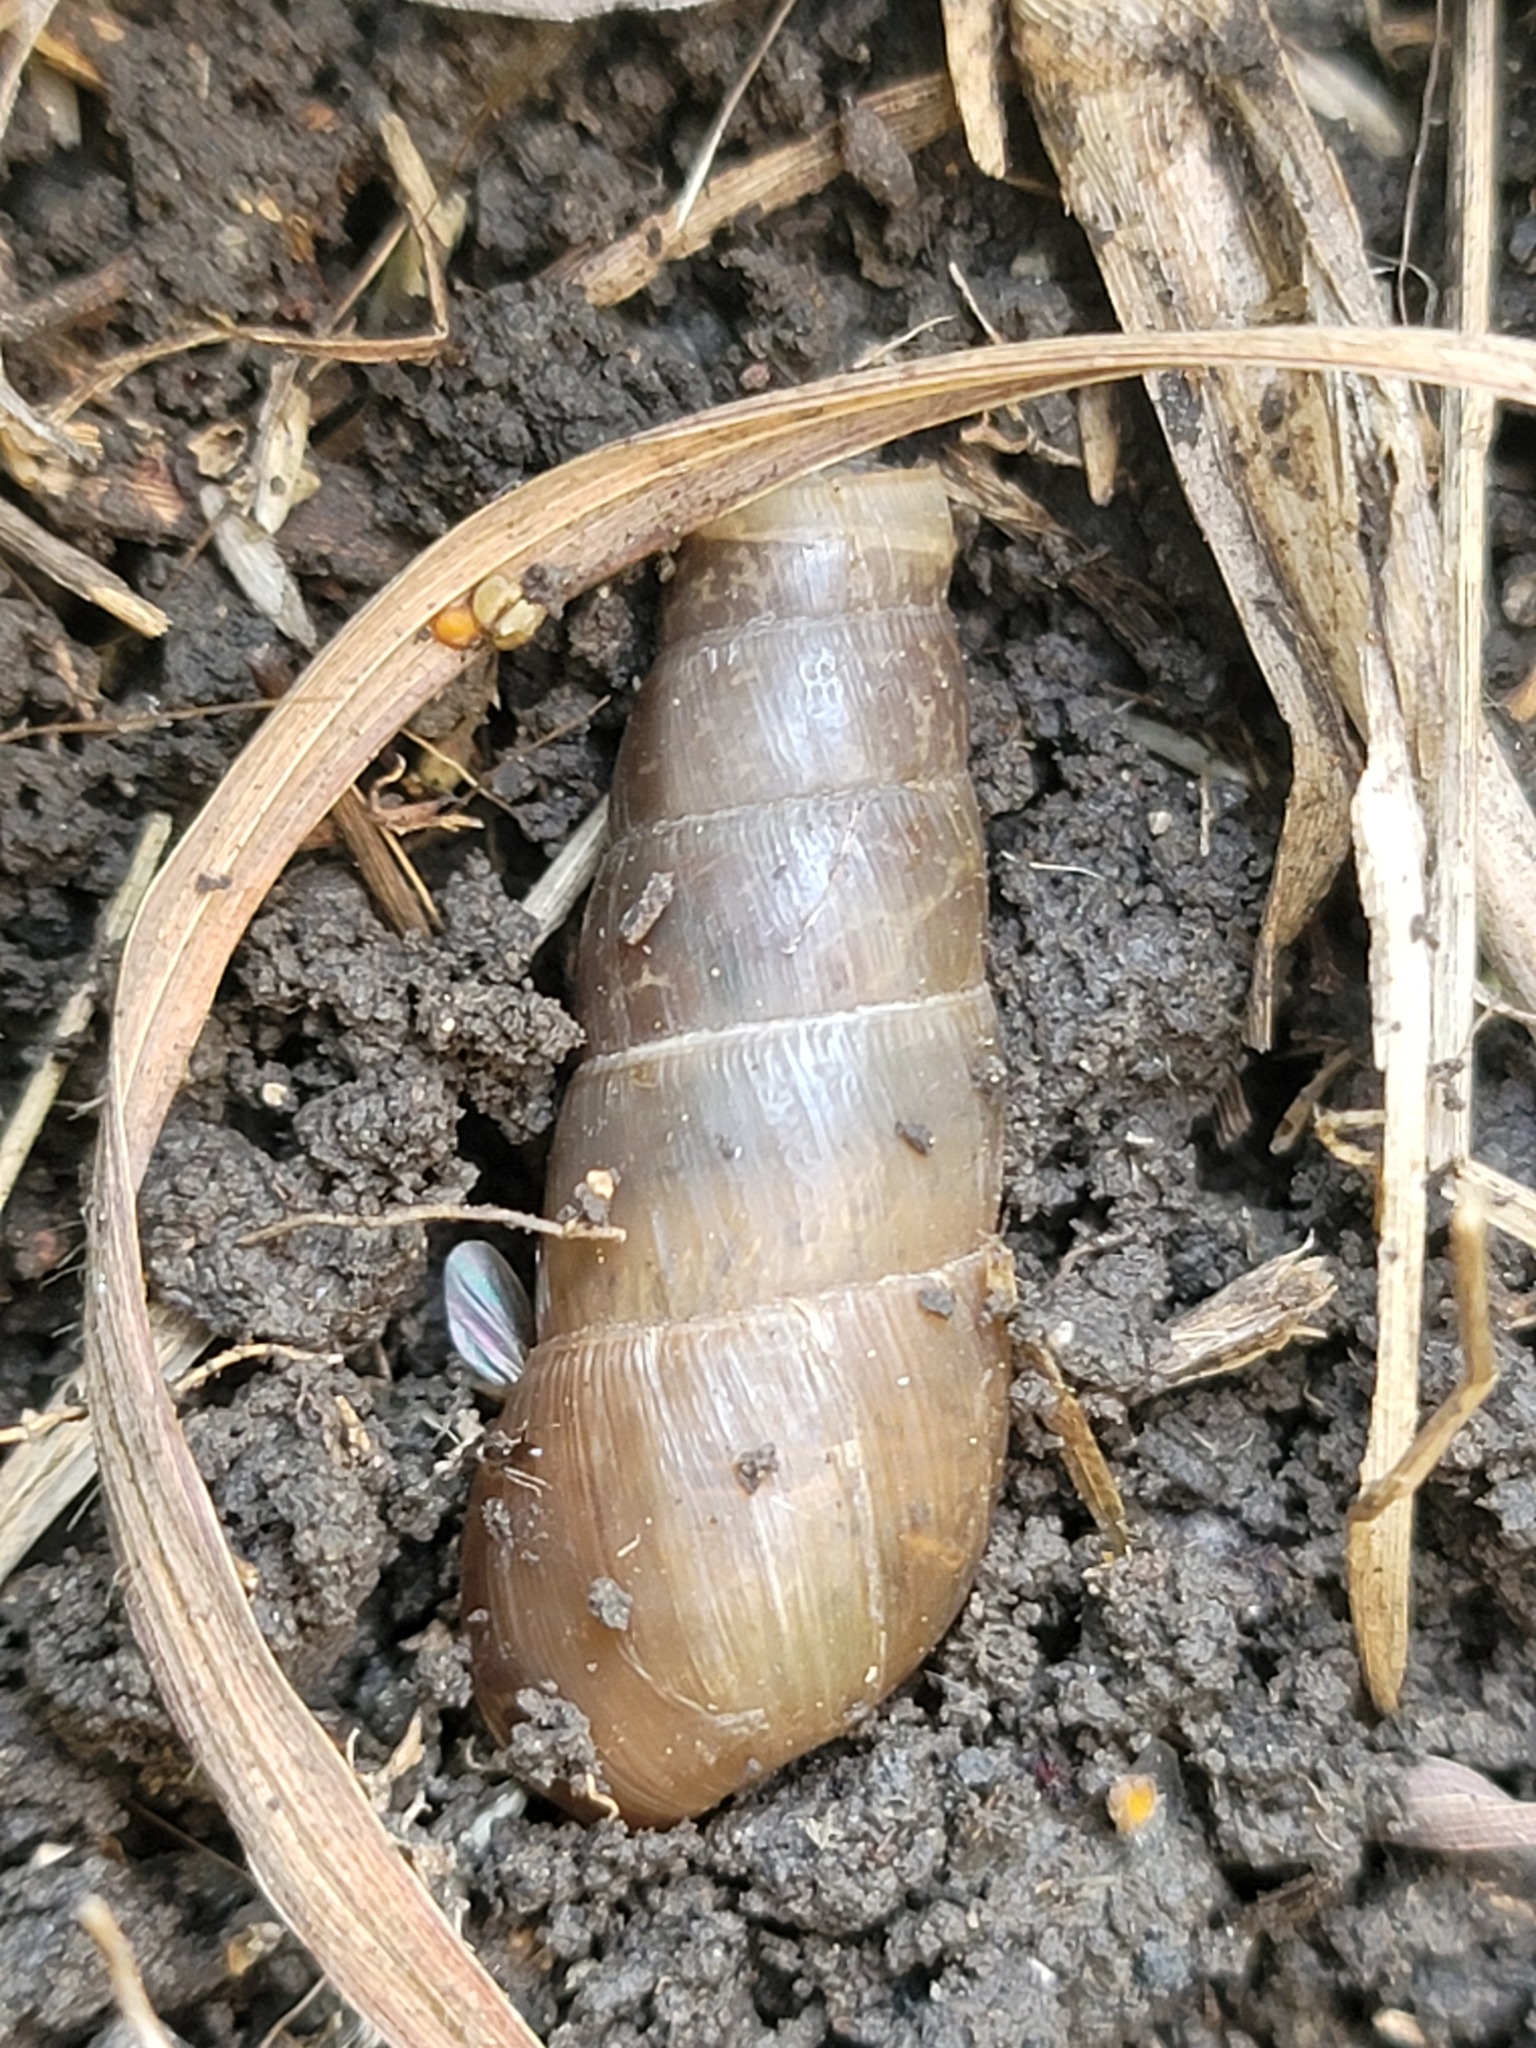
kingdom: Animalia
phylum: Mollusca
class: Gastropoda
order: Stylommatophora
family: Achatinidae
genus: Rumina
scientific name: Rumina decollata
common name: Decollate snail
